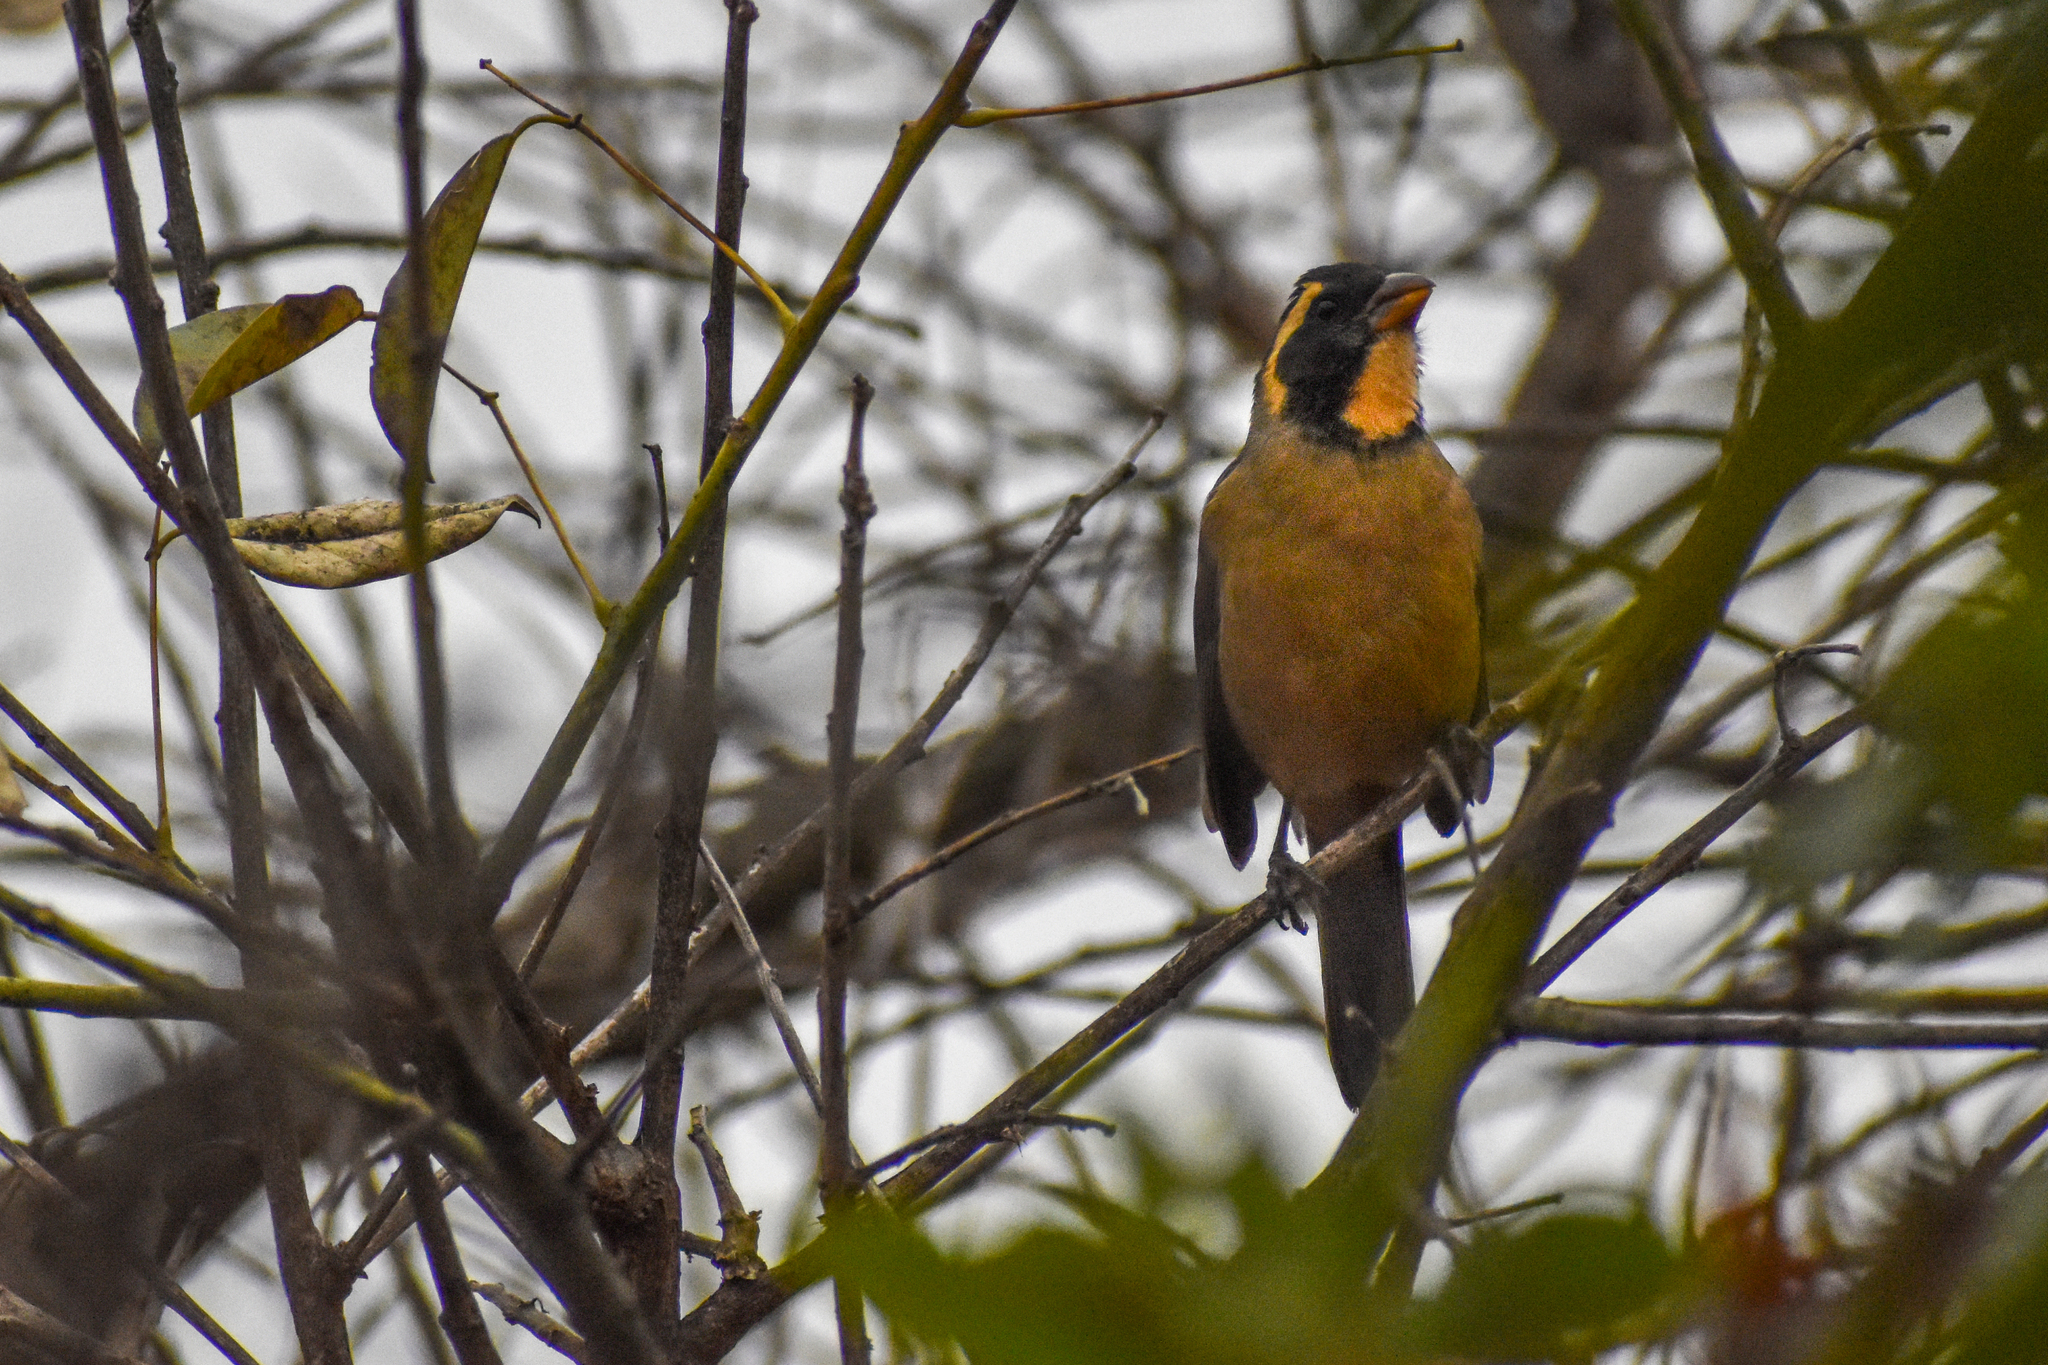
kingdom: Animalia
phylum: Chordata
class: Aves
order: Passeriformes
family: Thraupidae
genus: Saltator
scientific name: Saltator aurantiirostris
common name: Golden-billed saltator
